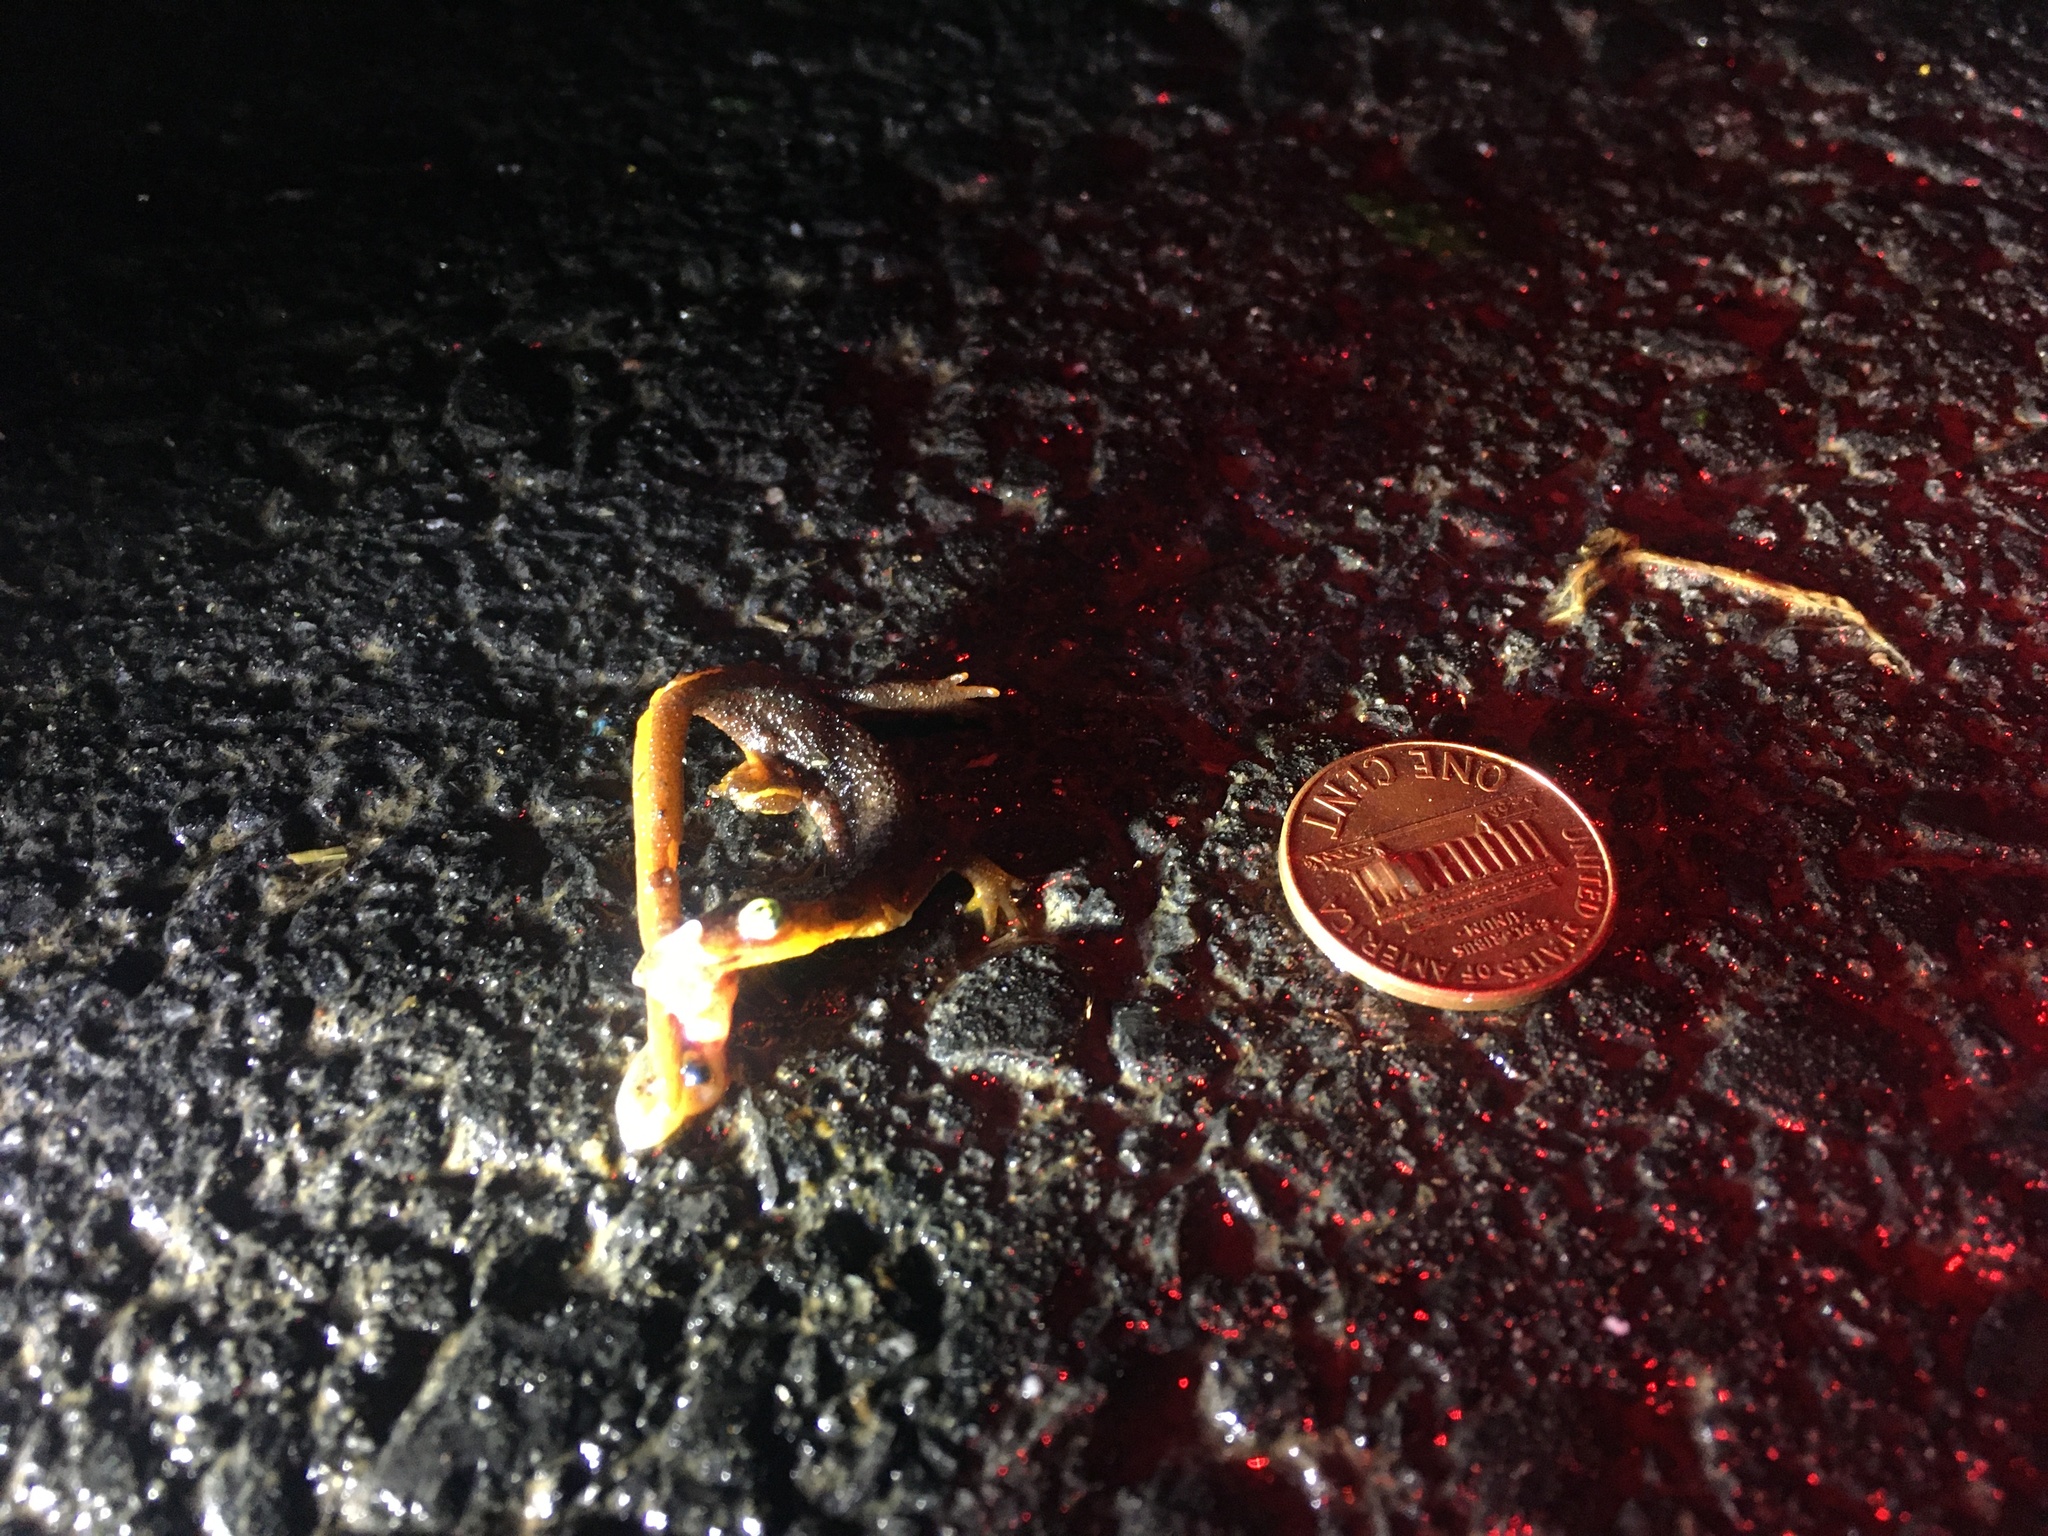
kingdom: Animalia
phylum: Chordata
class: Amphibia
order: Caudata
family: Salamandridae
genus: Taricha
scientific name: Taricha
